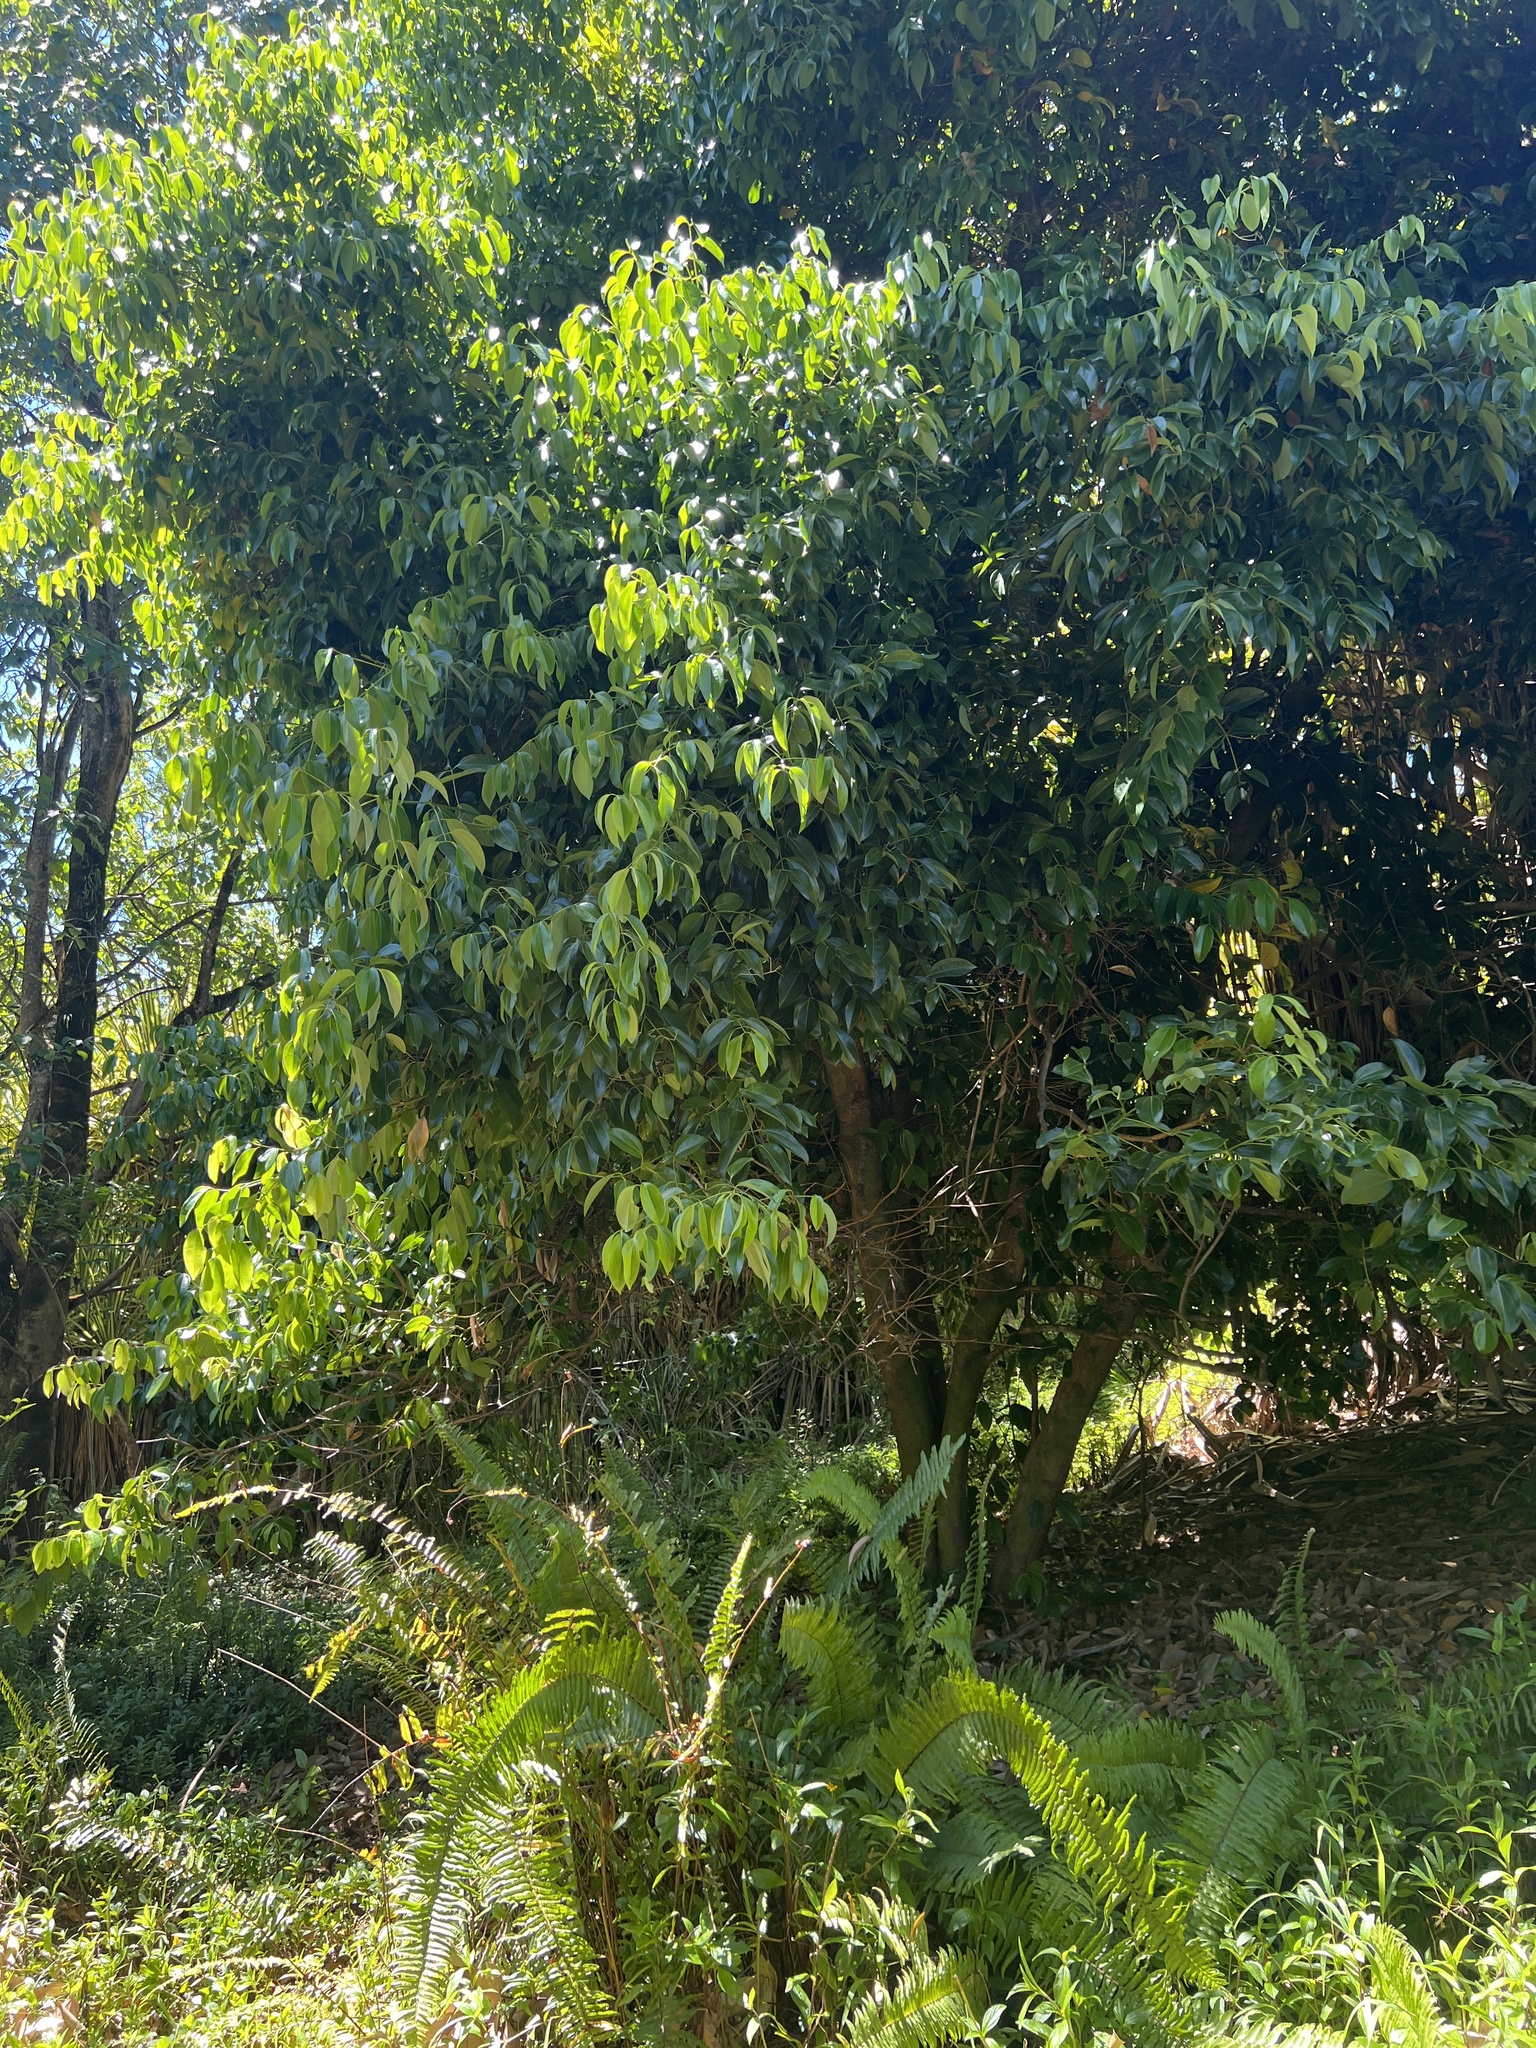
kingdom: Plantae
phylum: Tracheophyta
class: Magnoliopsida
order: Laurales
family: Lauraceae
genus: Cinnamomum
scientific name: Cinnamomum burmanni
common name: Padang cassia
